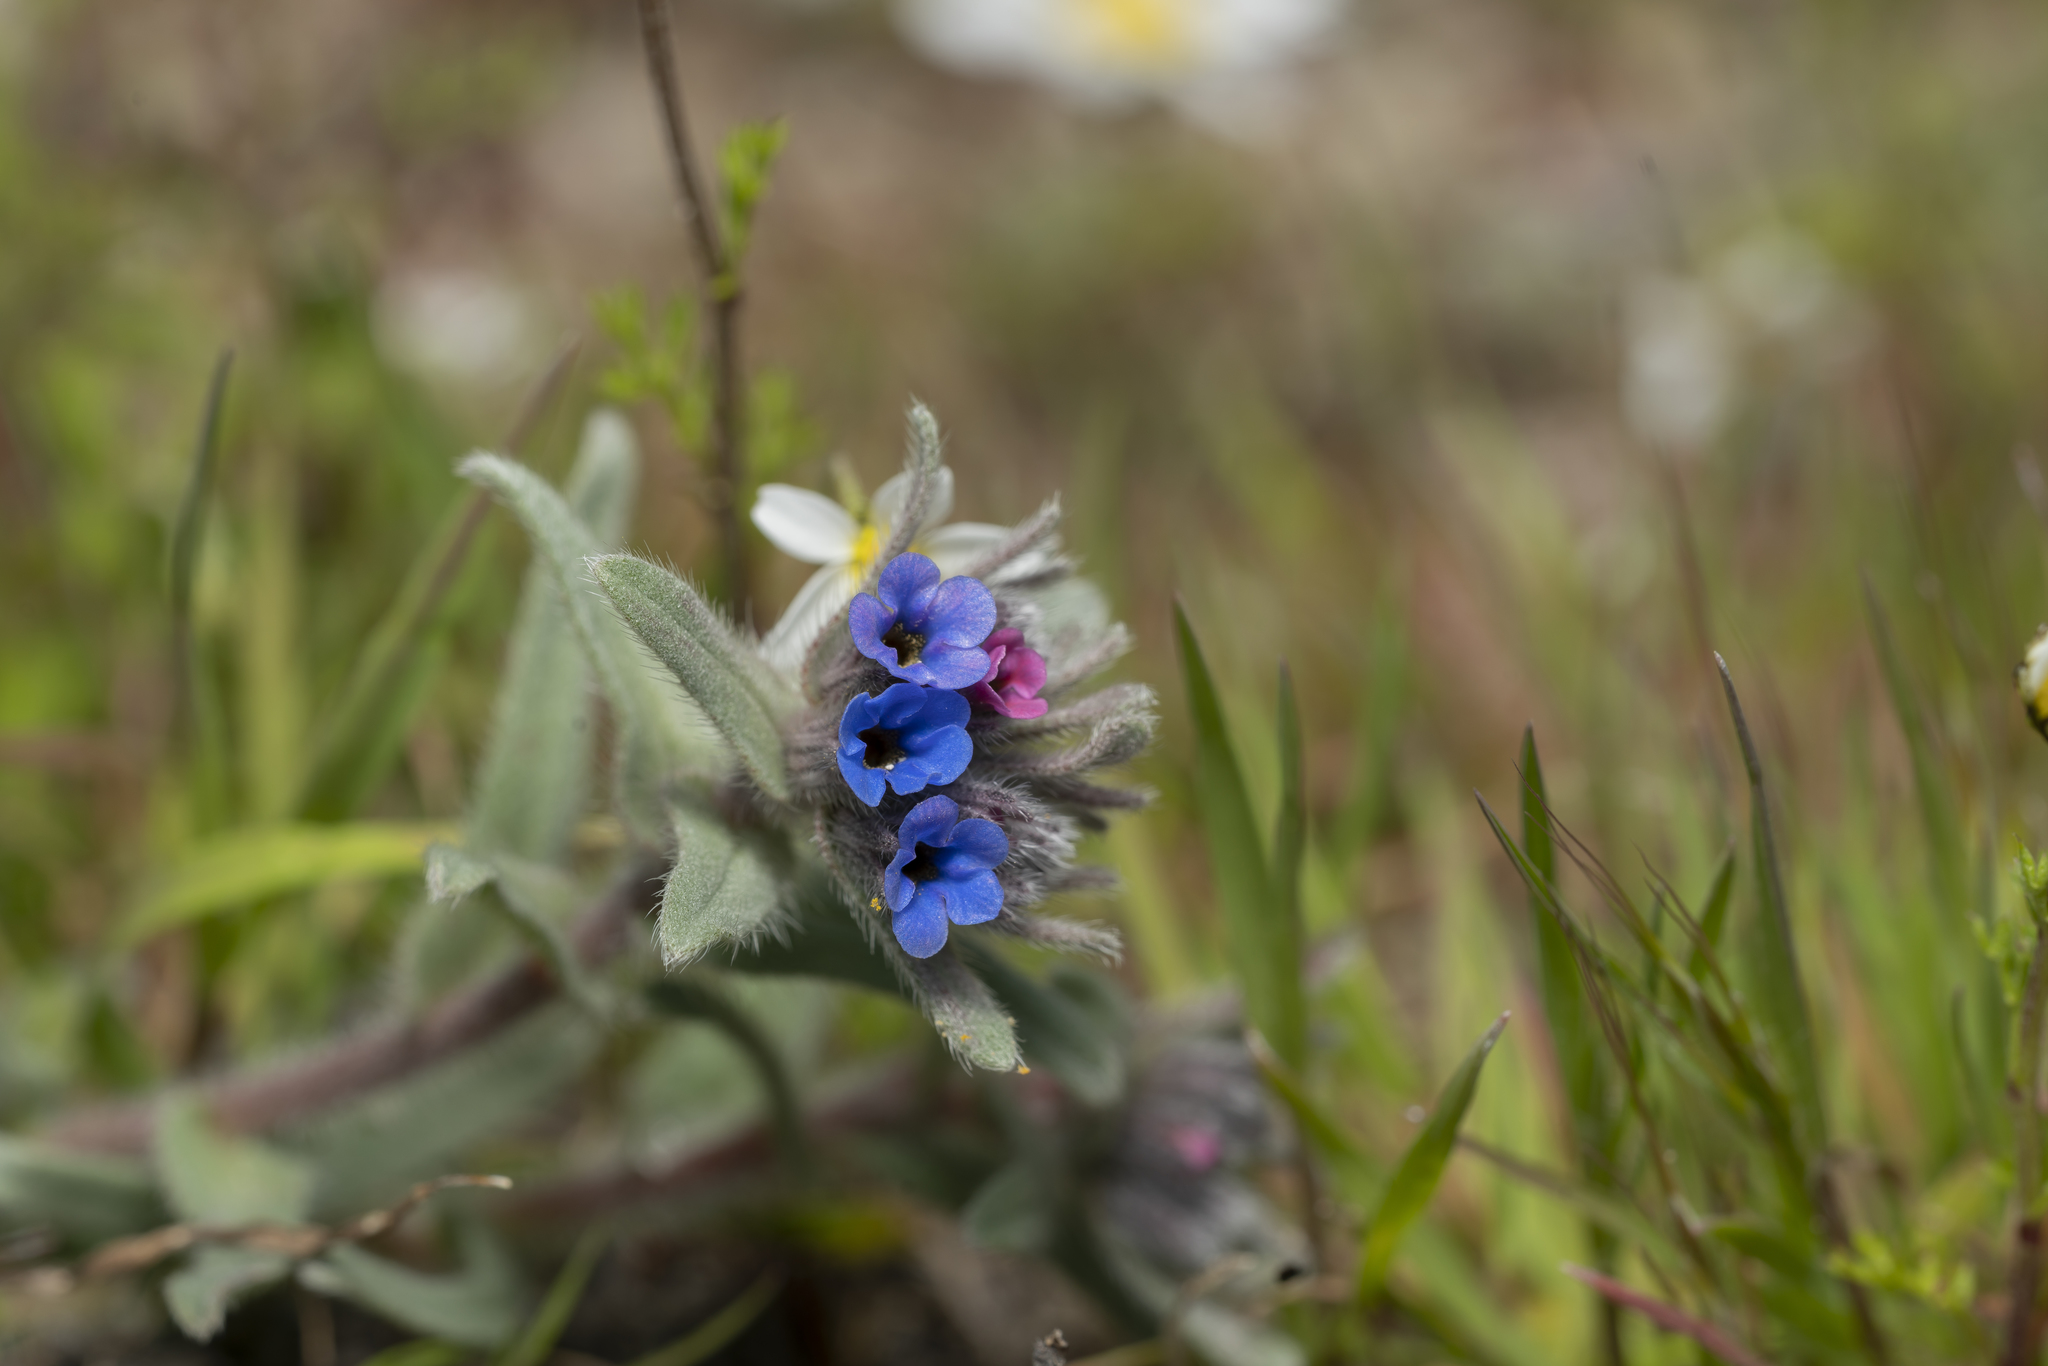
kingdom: Plantae
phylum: Tracheophyta
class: Magnoliopsida
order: Boraginales
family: Boraginaceae
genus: Alkanna
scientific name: Alkanna tinctoria
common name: Dyer's-alkanet
